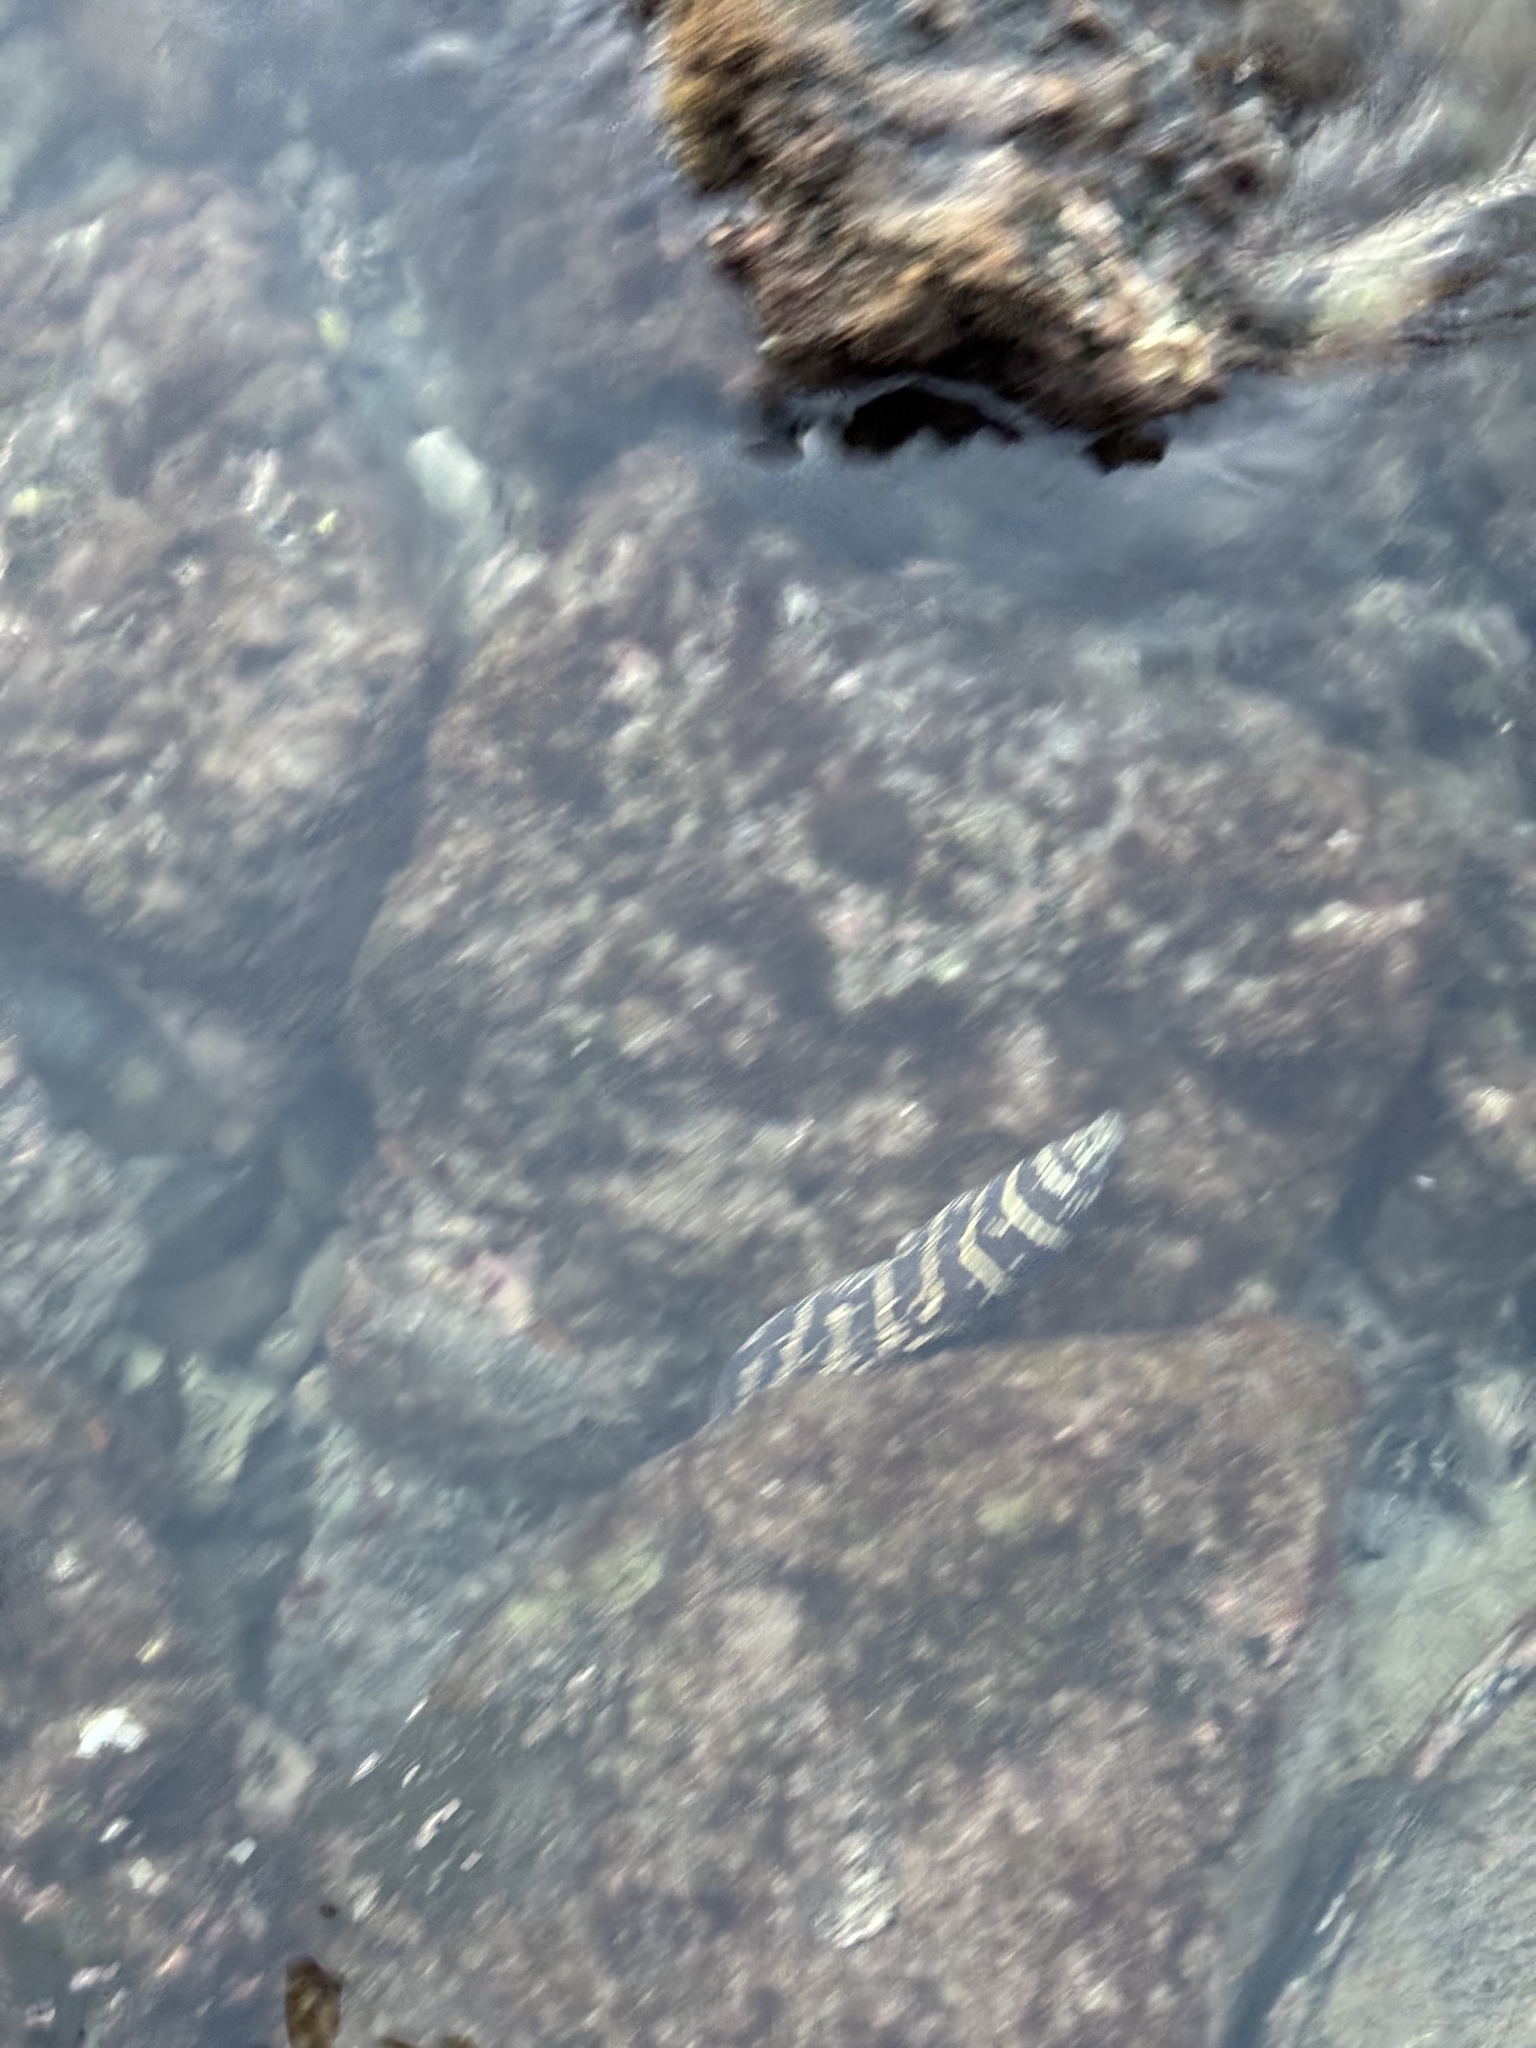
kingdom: Animalia
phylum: Chordata
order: Anguilliformes
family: Muraenidae
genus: Echidna
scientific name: Echidna catenata
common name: Chain moray
